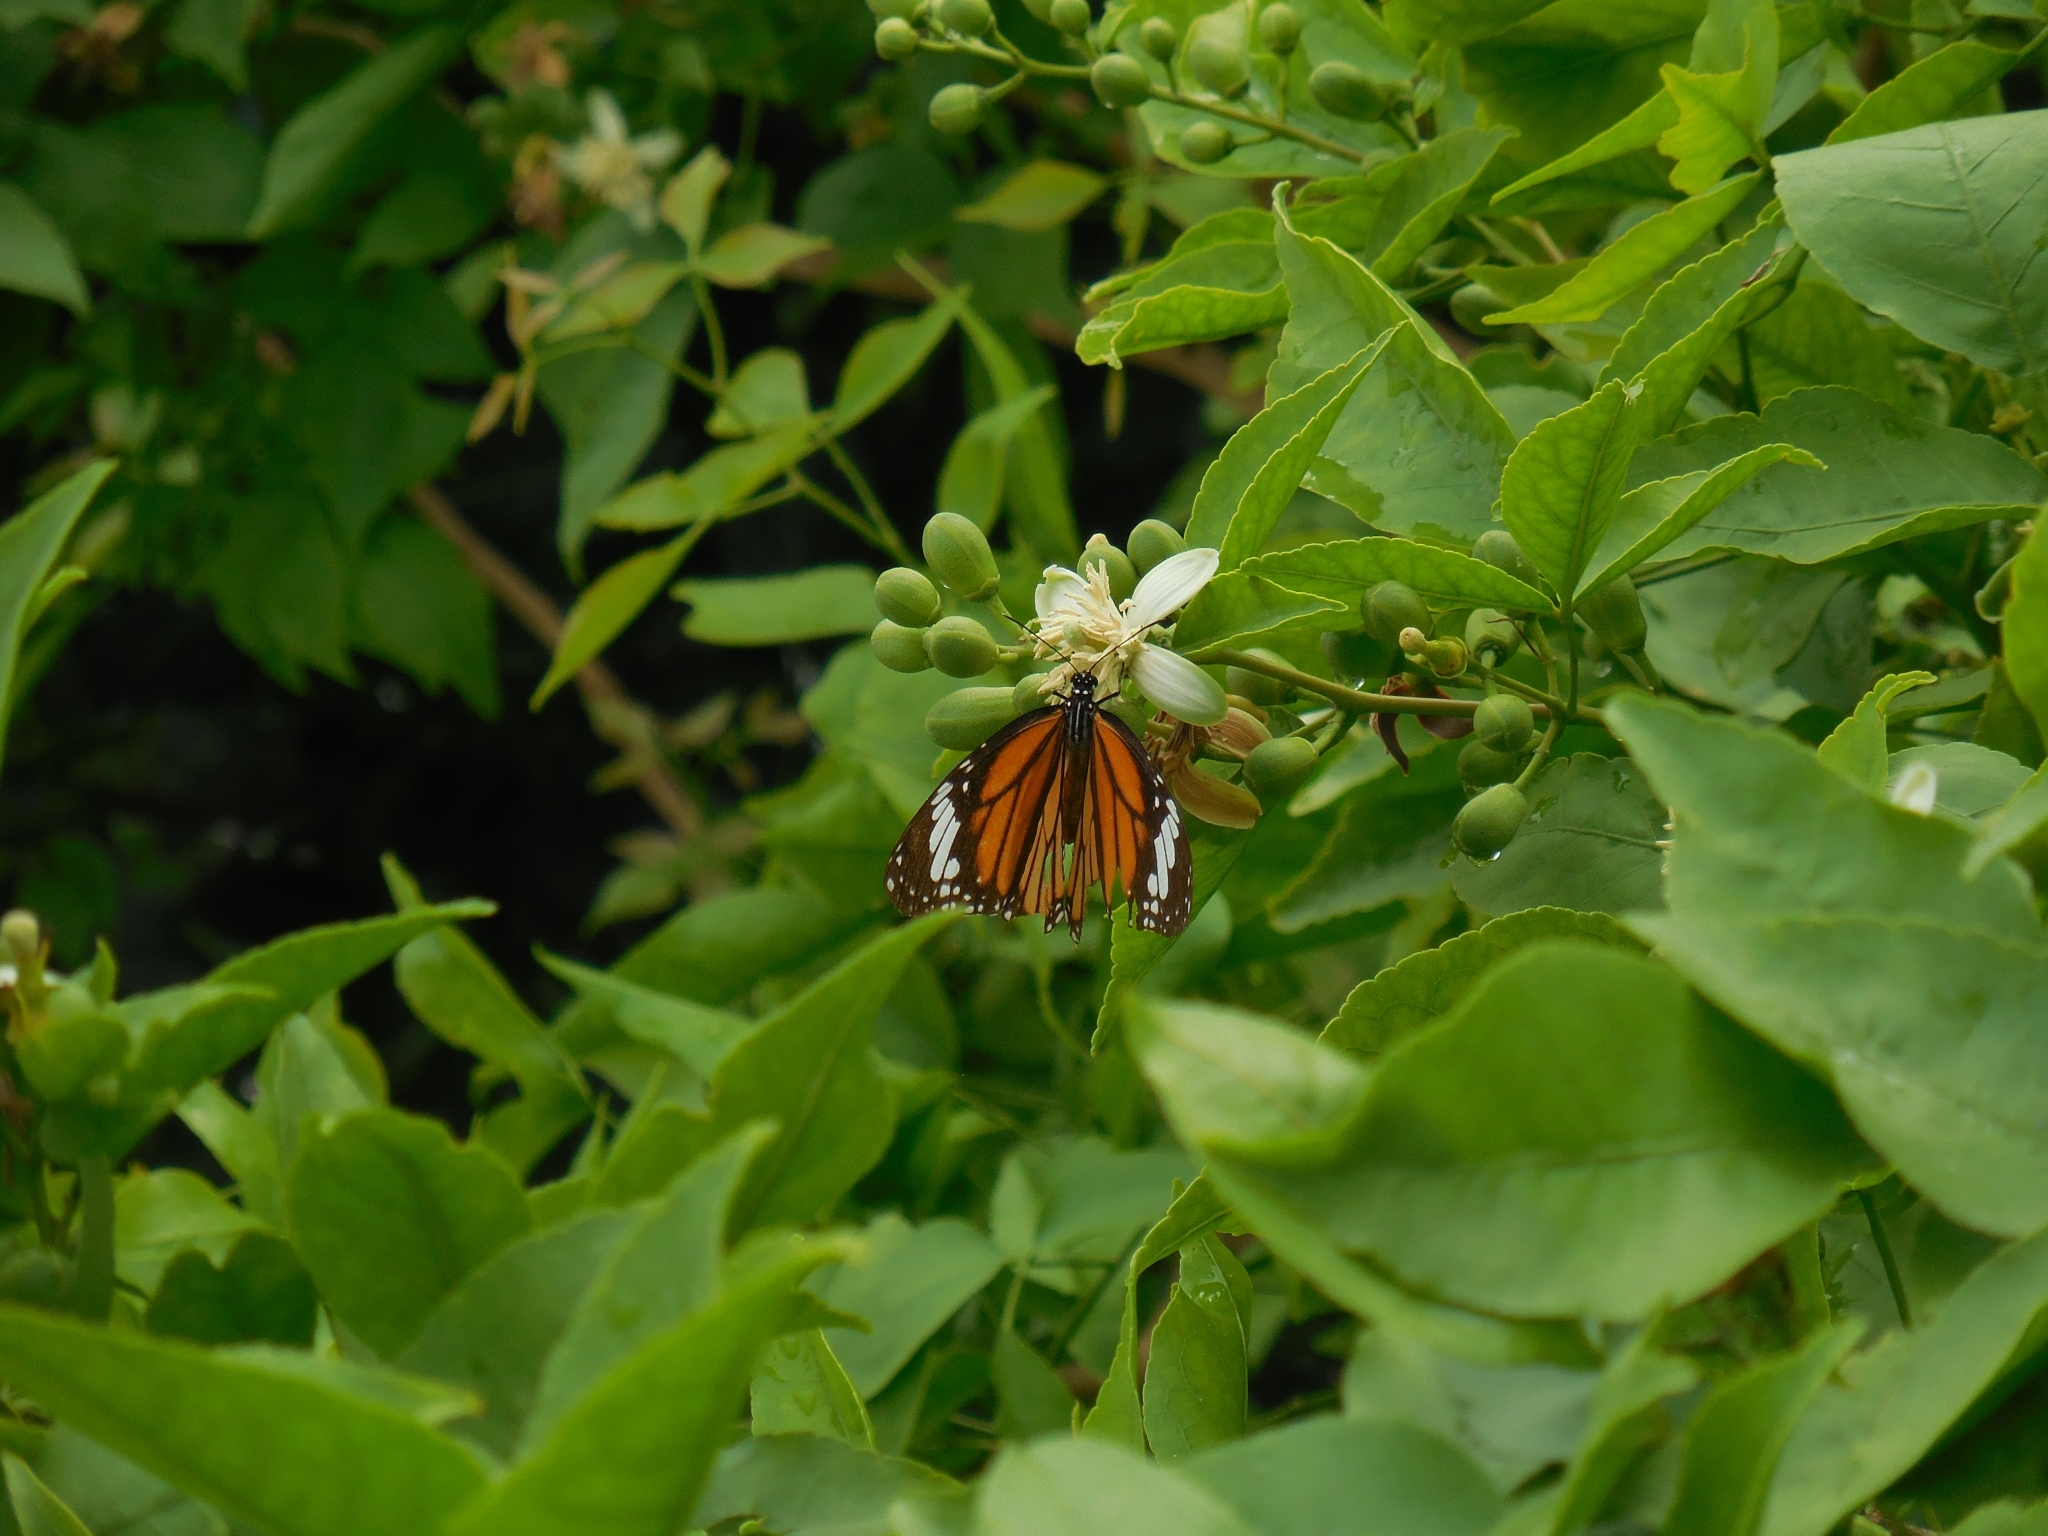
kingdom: Animalia
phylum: Arthropoda
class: Insecta
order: Lepidoptera
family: Nymphalidae
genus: Danaus
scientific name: Danaus genutia
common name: Common tiger butterfly
